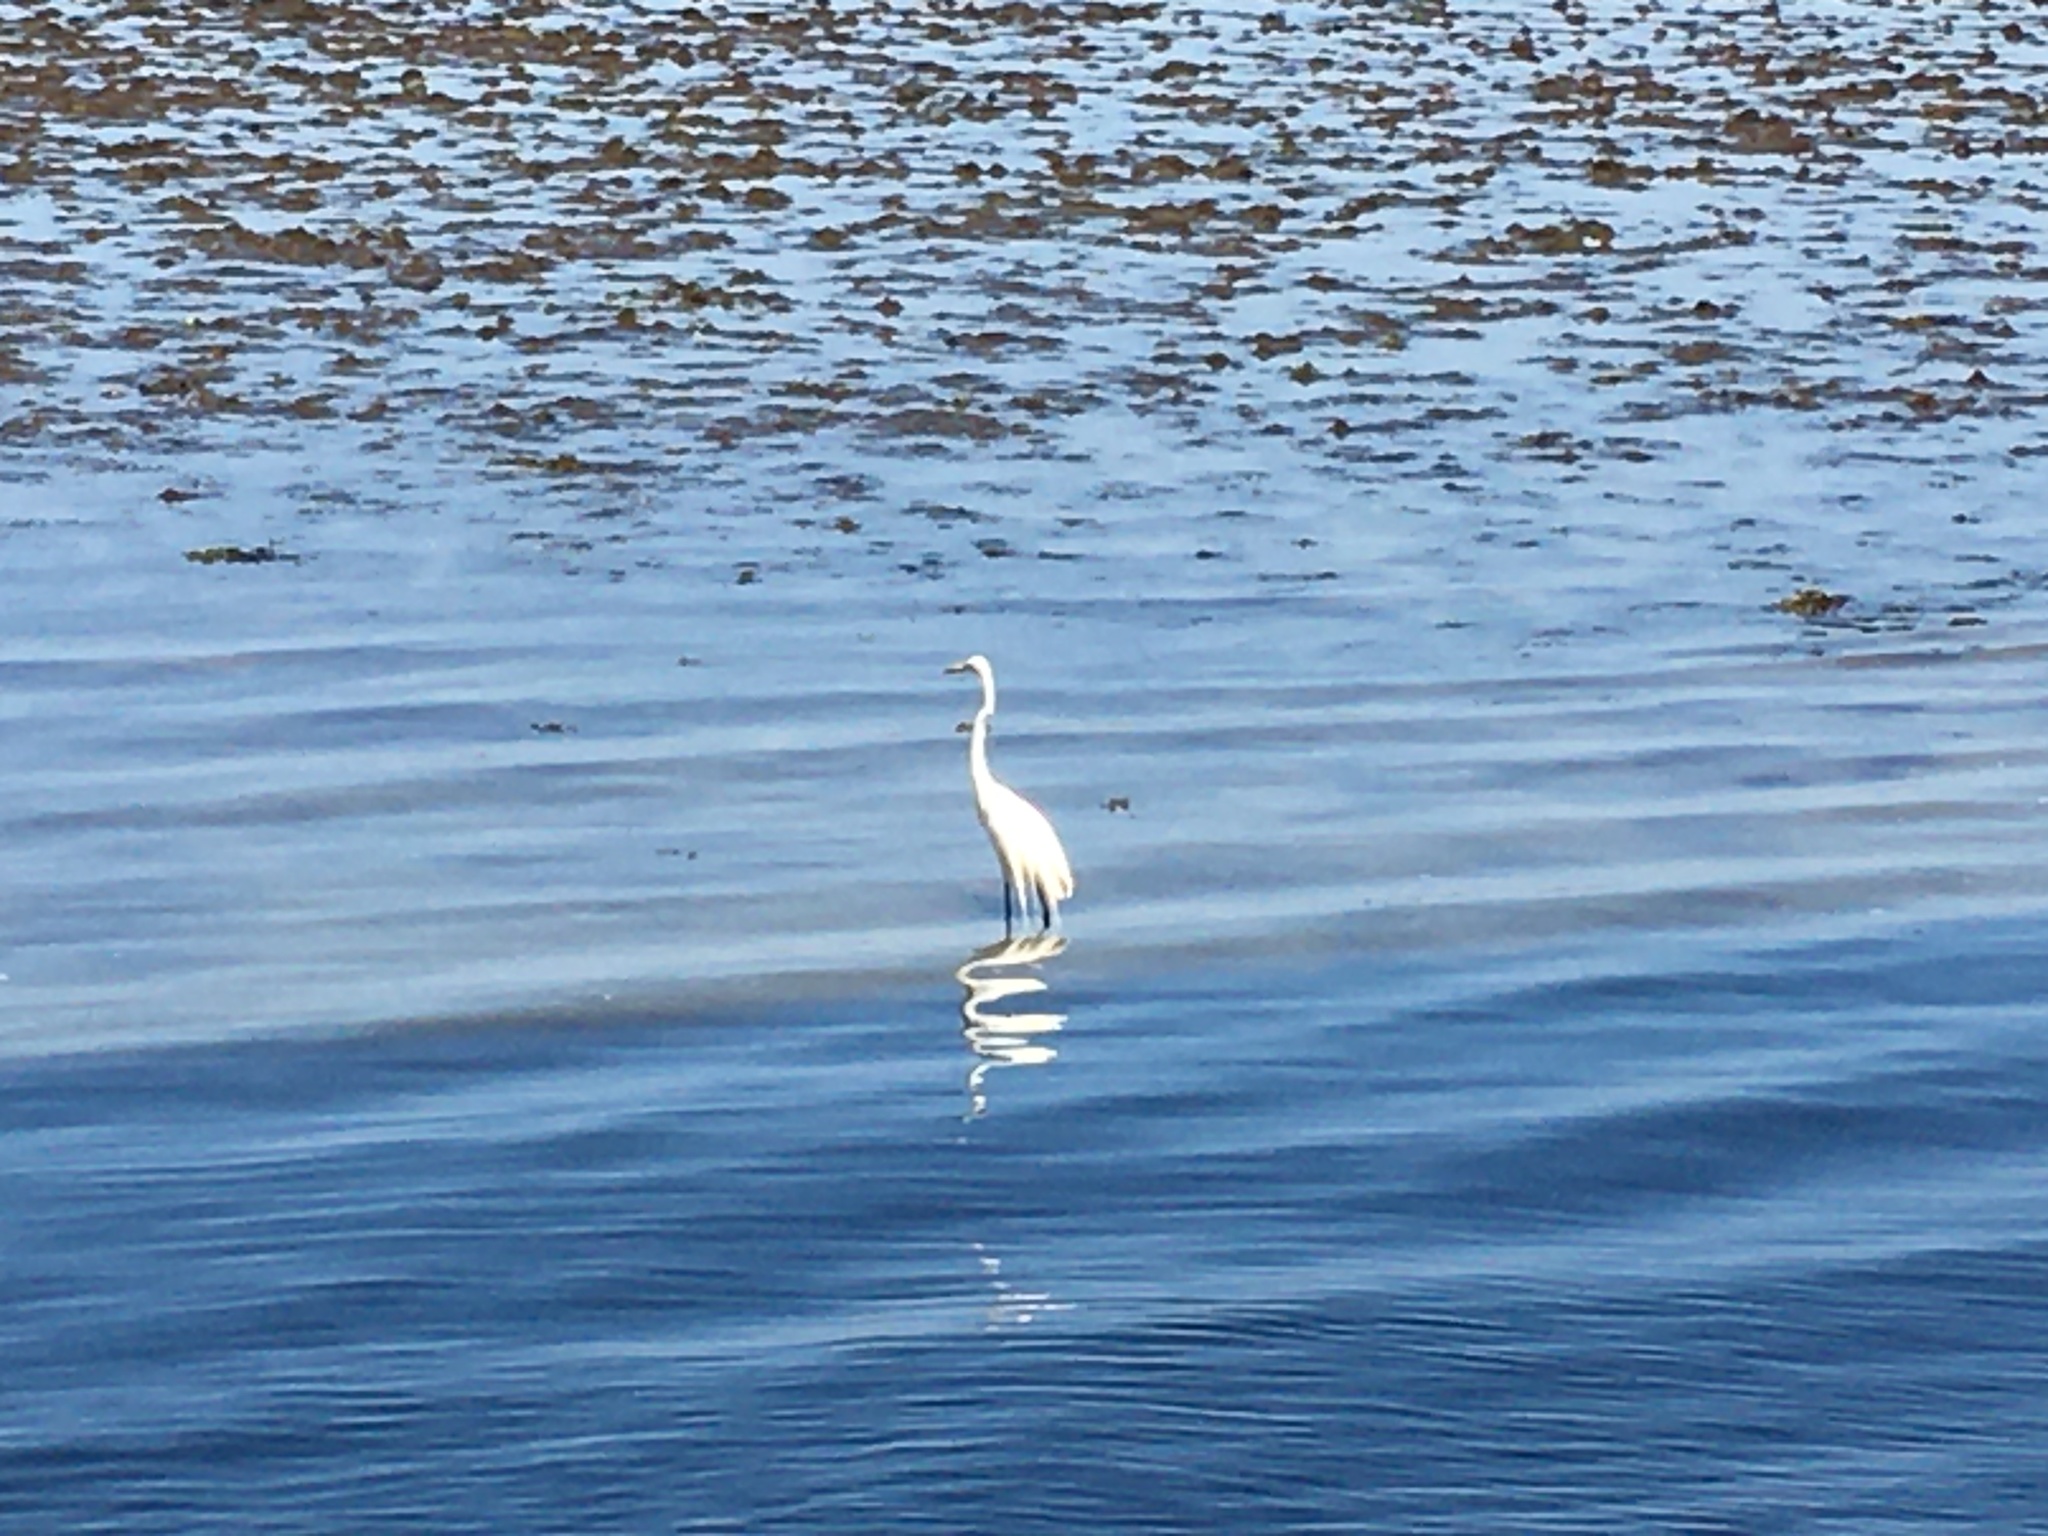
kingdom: Animalia
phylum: Chordata
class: Aves
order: Pelecaniformes
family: Ardeidae
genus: Ardea
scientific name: Ardea alba
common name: Great egret
